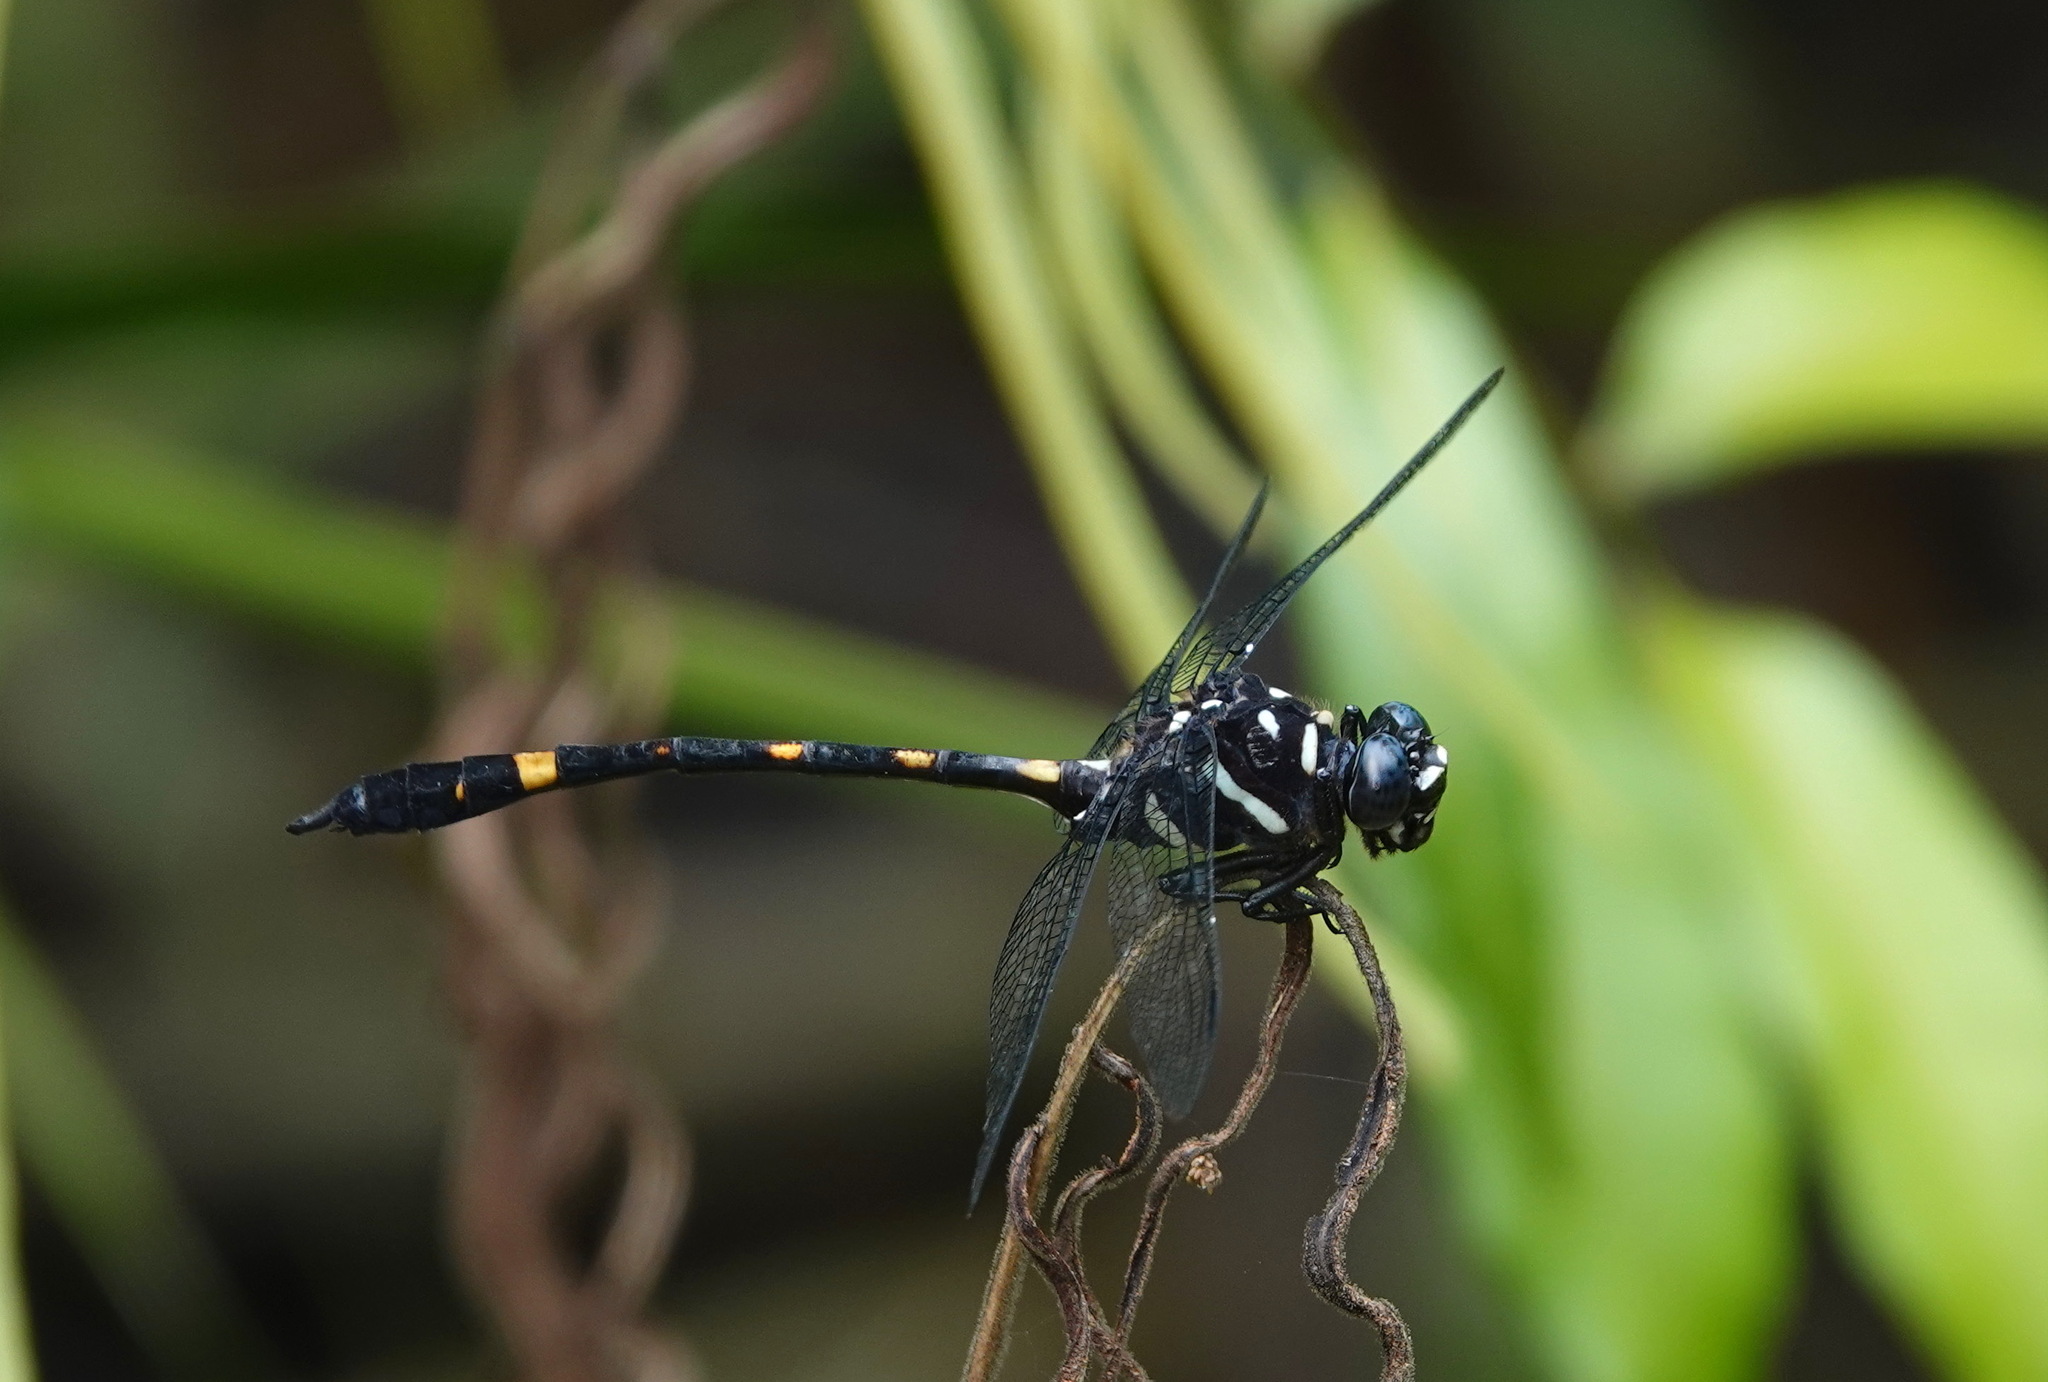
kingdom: Animalia
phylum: Arthropoda
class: Insecta
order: Odonata
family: Gomphidae
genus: Gomphidia
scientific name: Gomphidia abbotti
